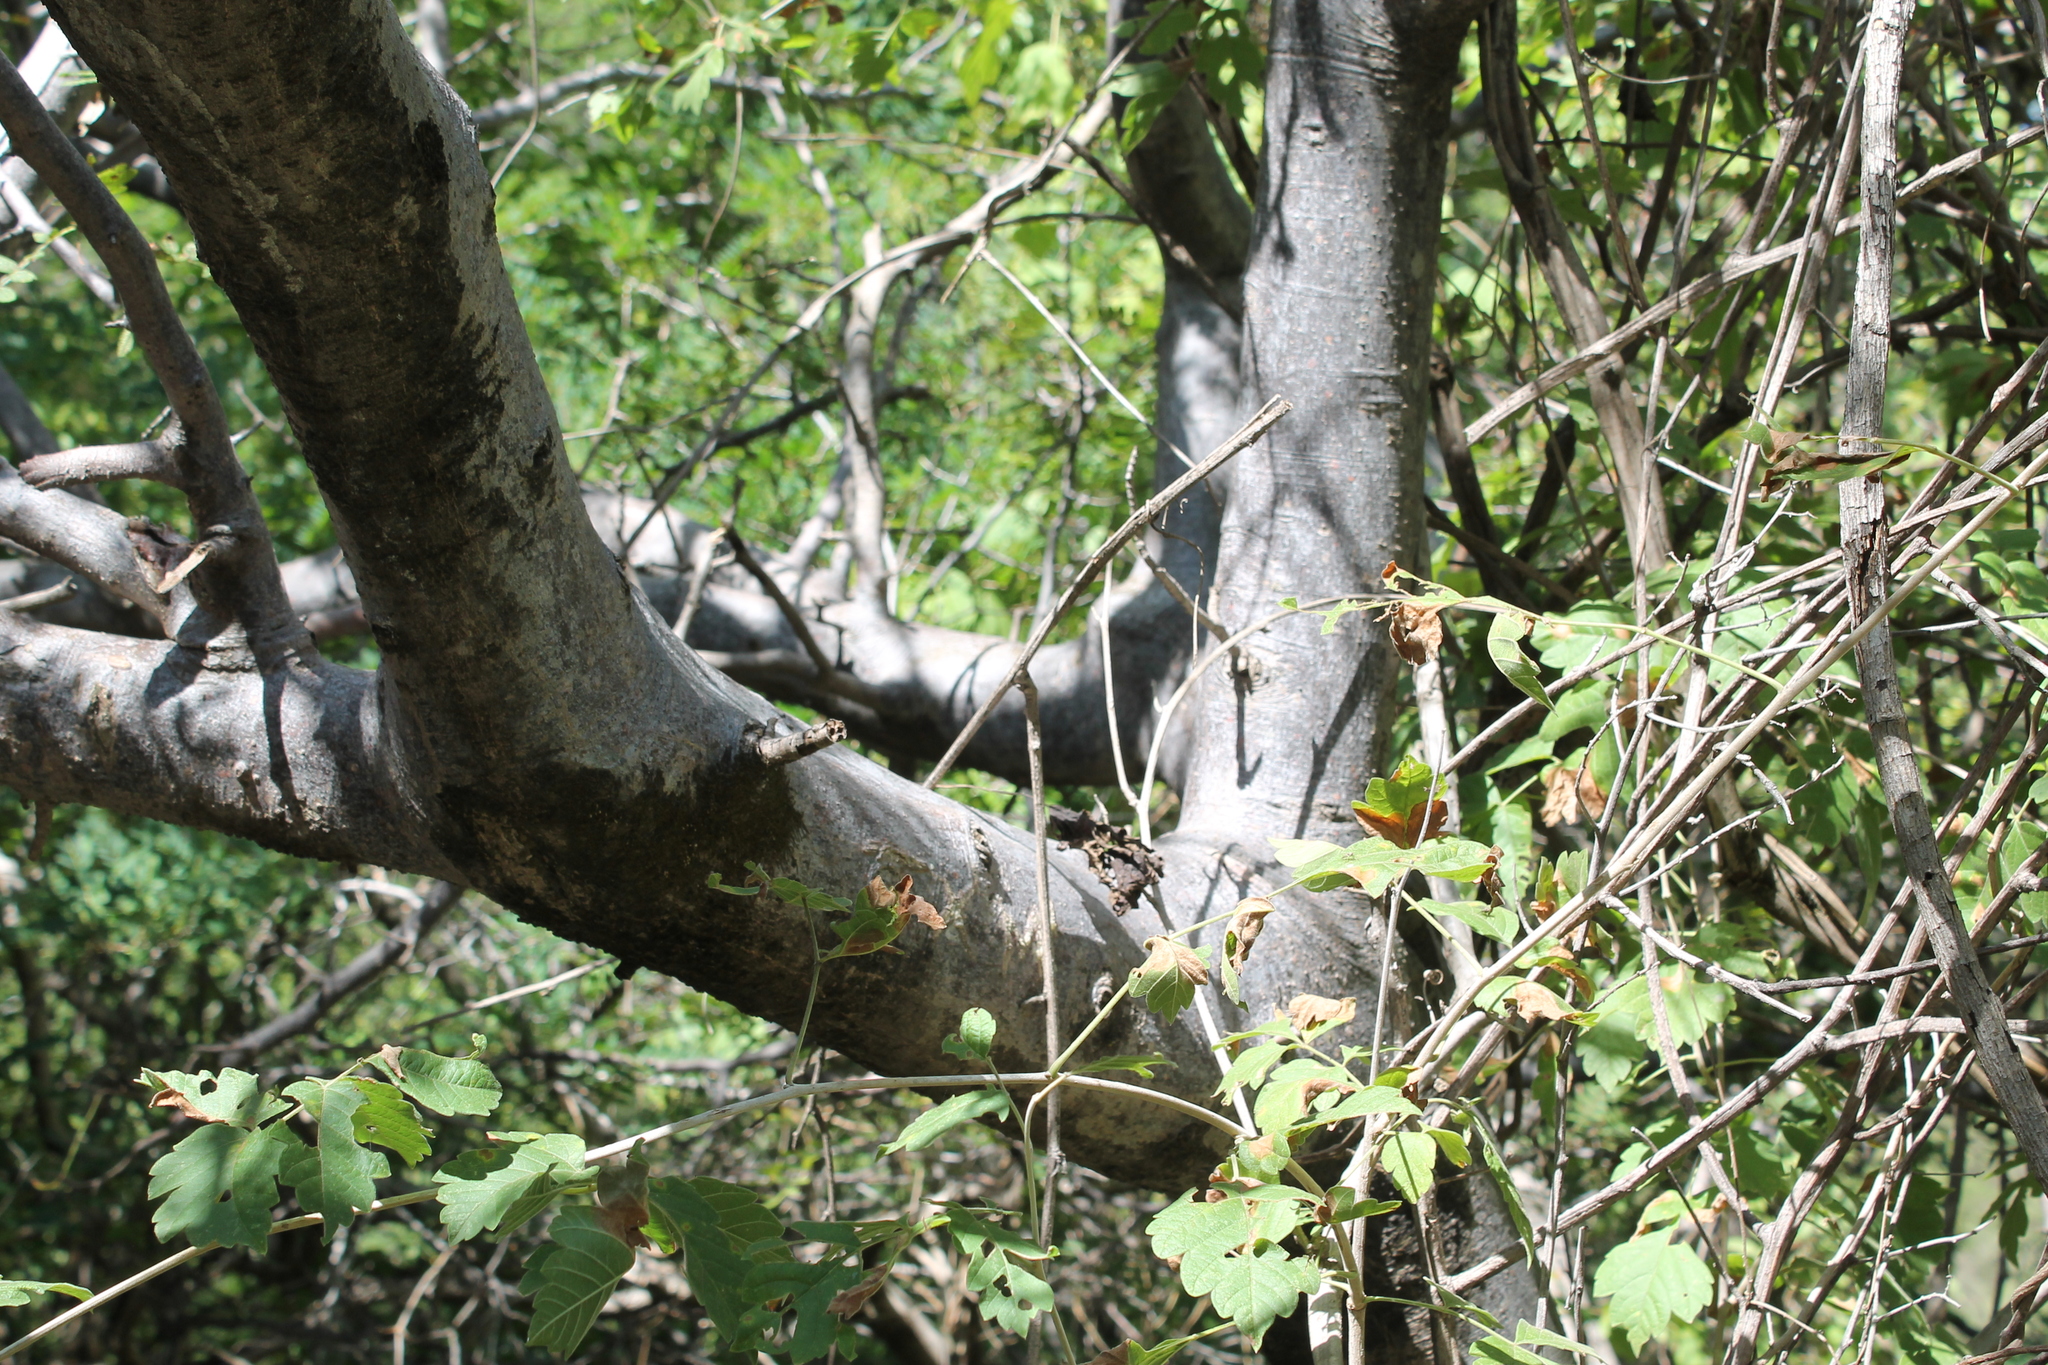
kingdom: Plantae
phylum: Tracheophyta
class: Magnoliopsida
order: Sapindales
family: Burseraceae
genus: Bursera
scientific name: Bursera copallifera
